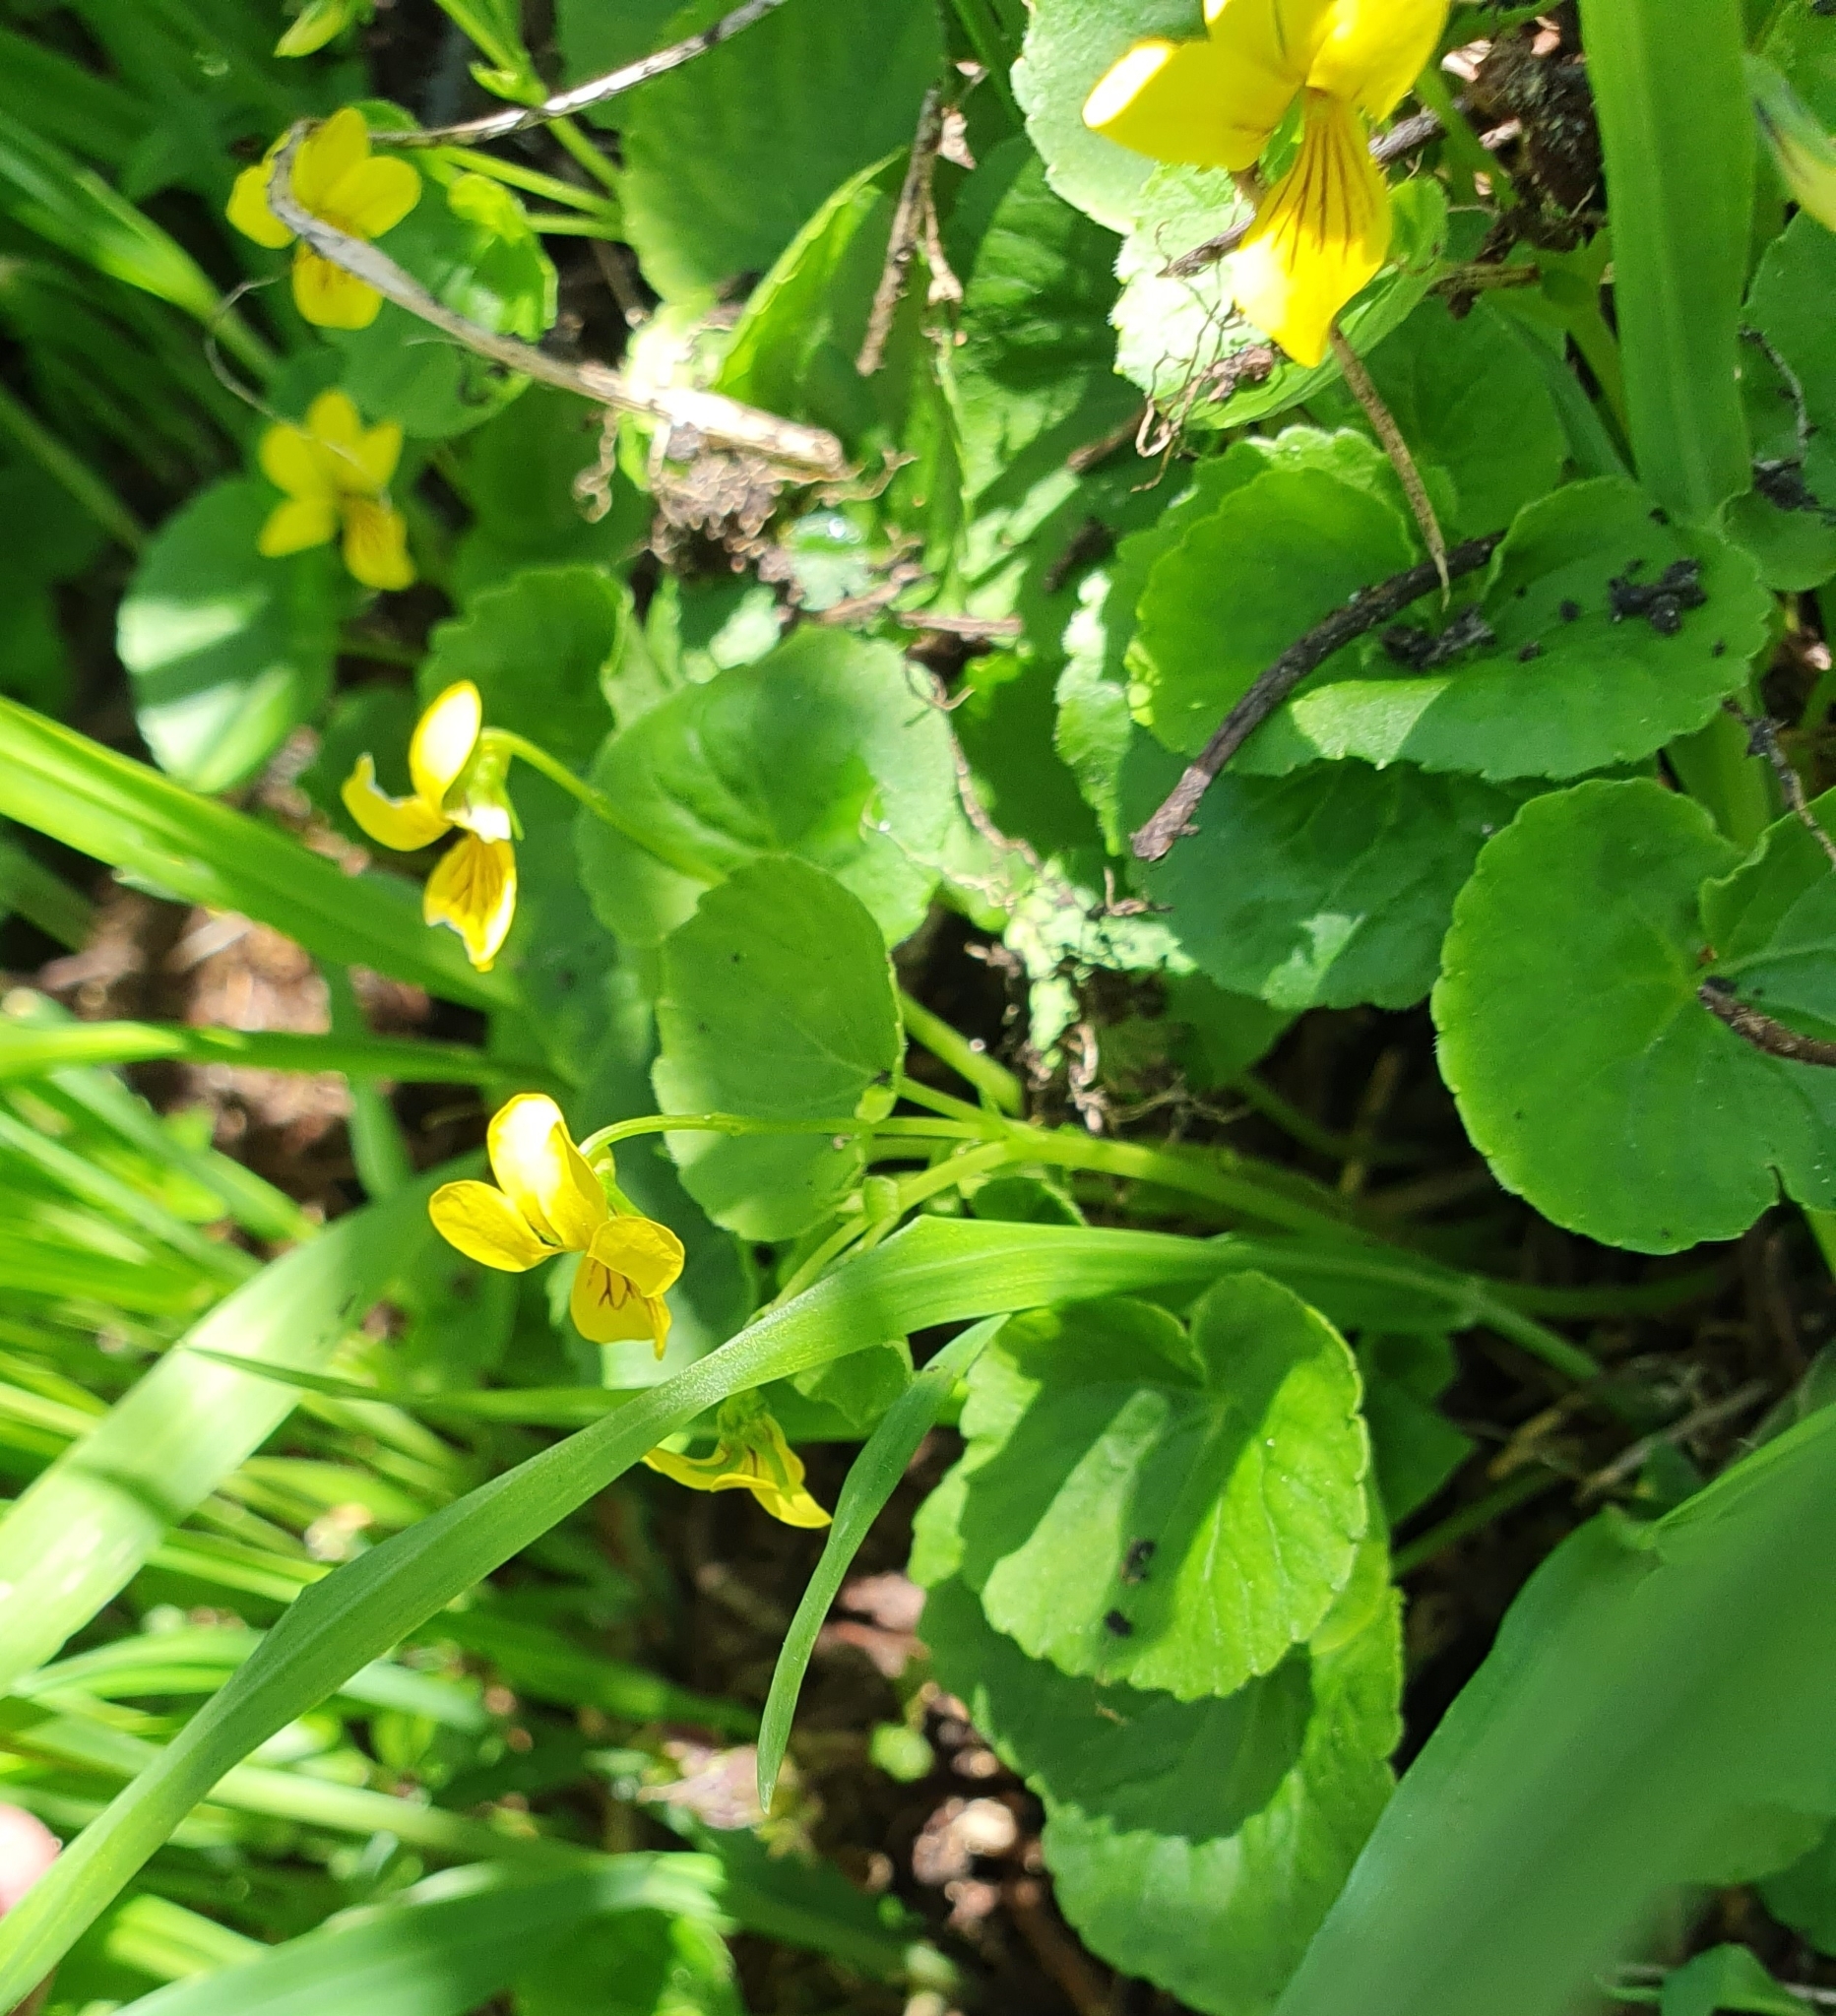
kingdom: Plantae
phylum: Tracheophyta
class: Magnoliopsida
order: Malpighiales
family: Violaceae
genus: Viola
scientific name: Viola biflora
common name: Alpine yellow violet
